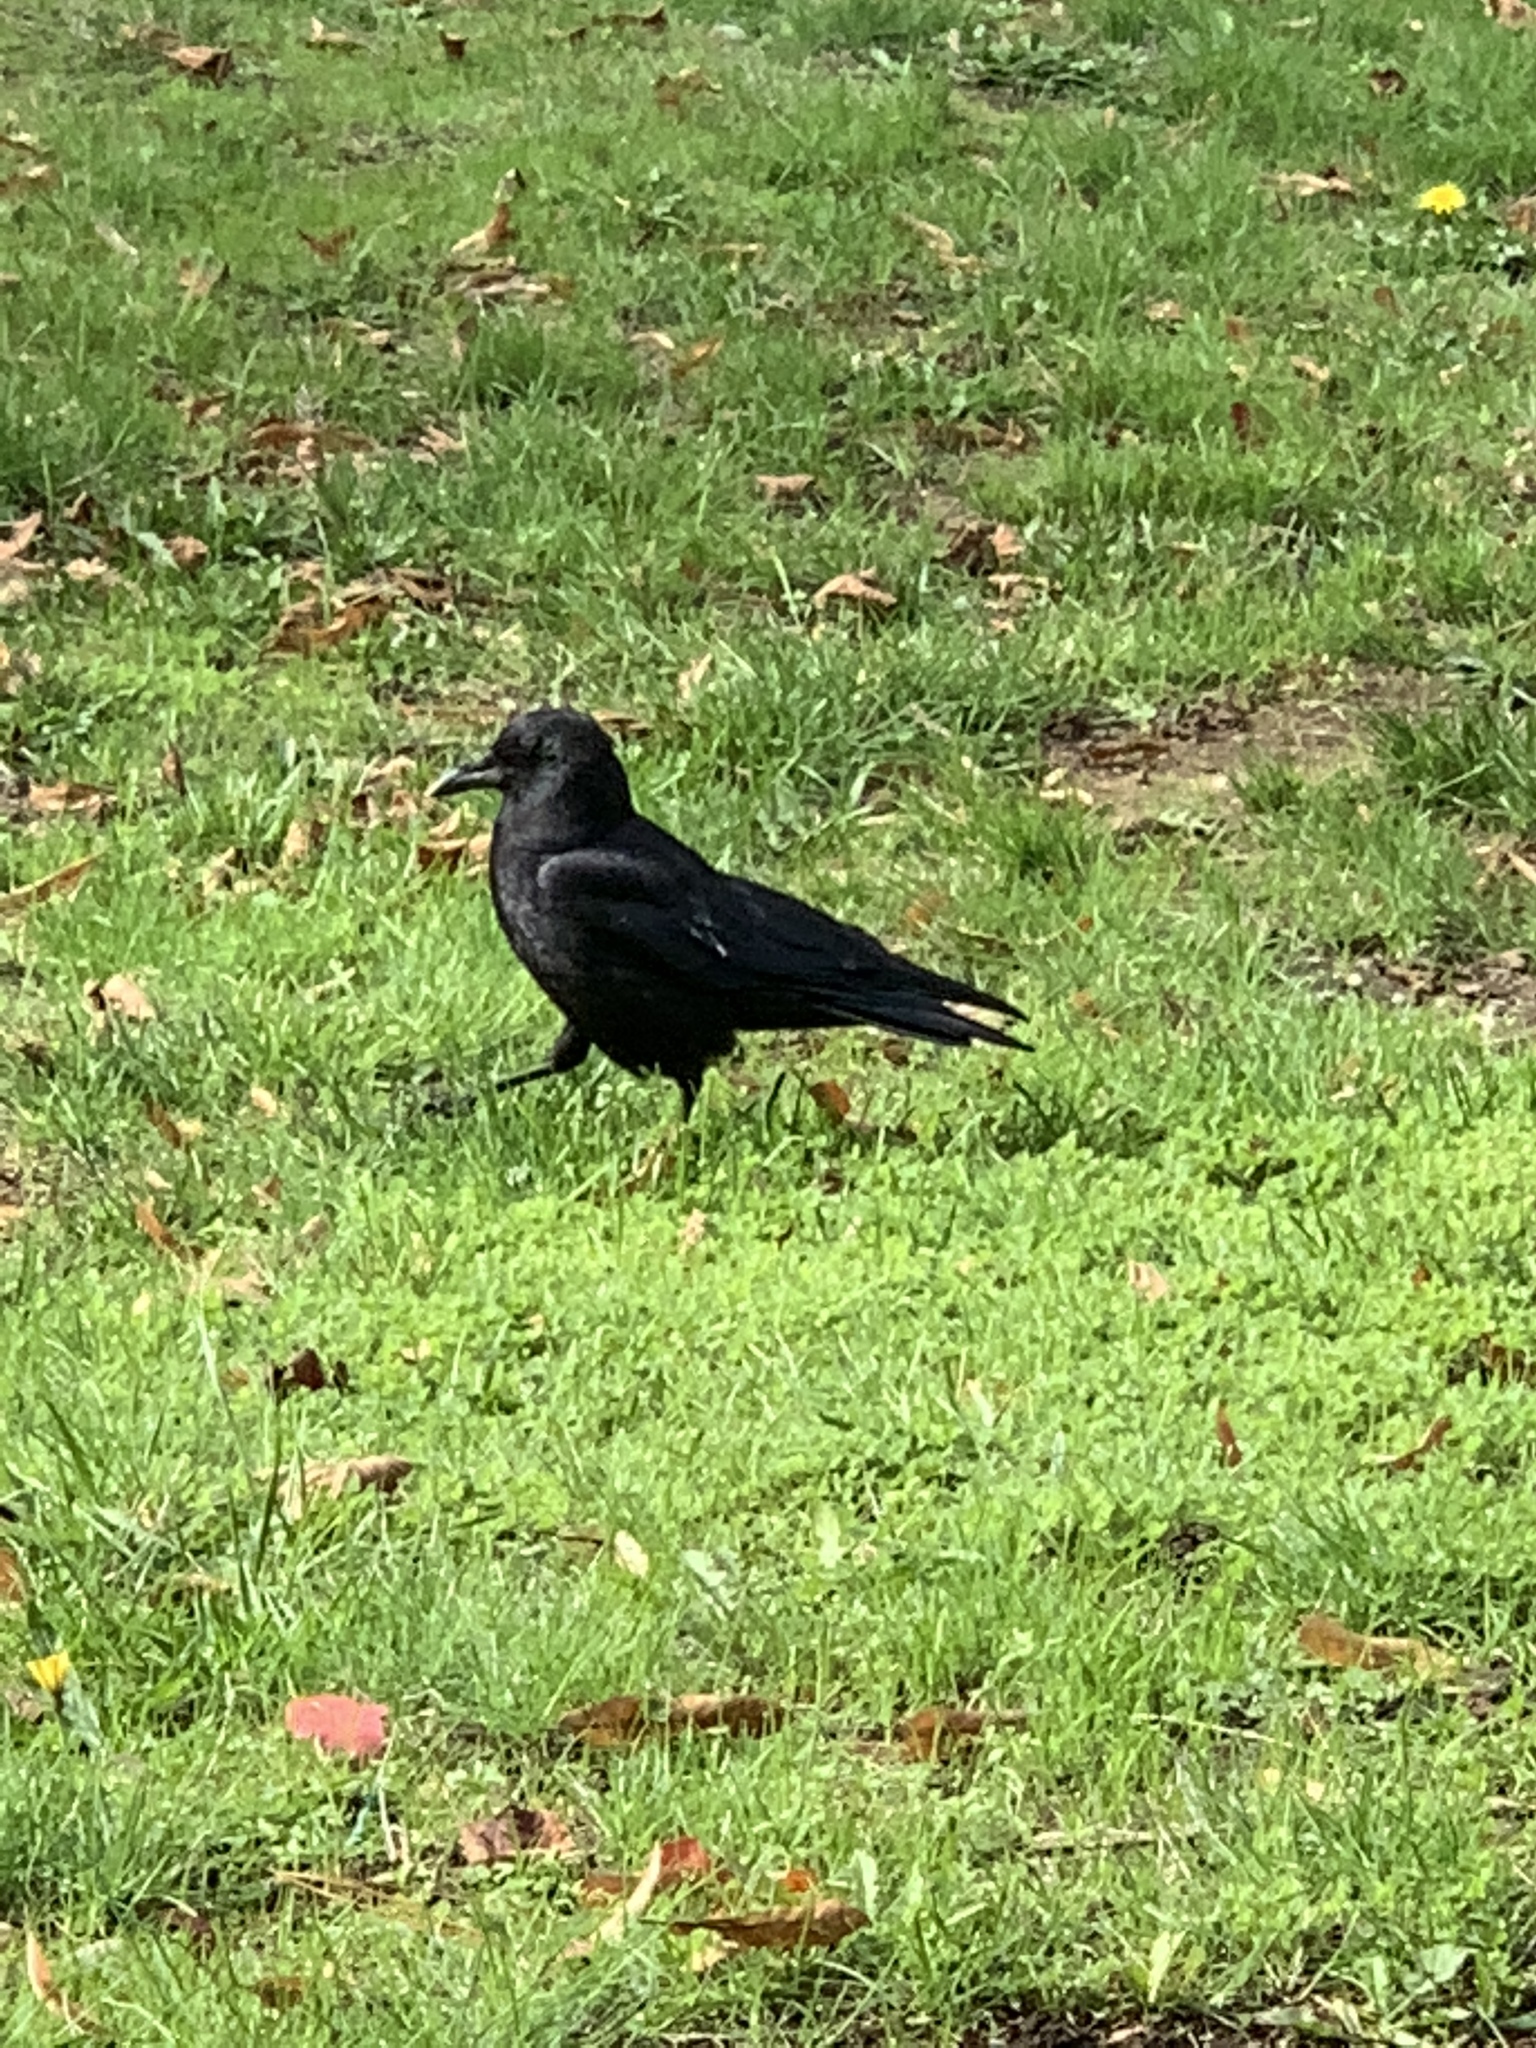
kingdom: Animalia
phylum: Chordata
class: Aves
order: Passeriformes
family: Corvidae
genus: Corvus
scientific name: Corvus brachyrhynchos
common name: American crow
